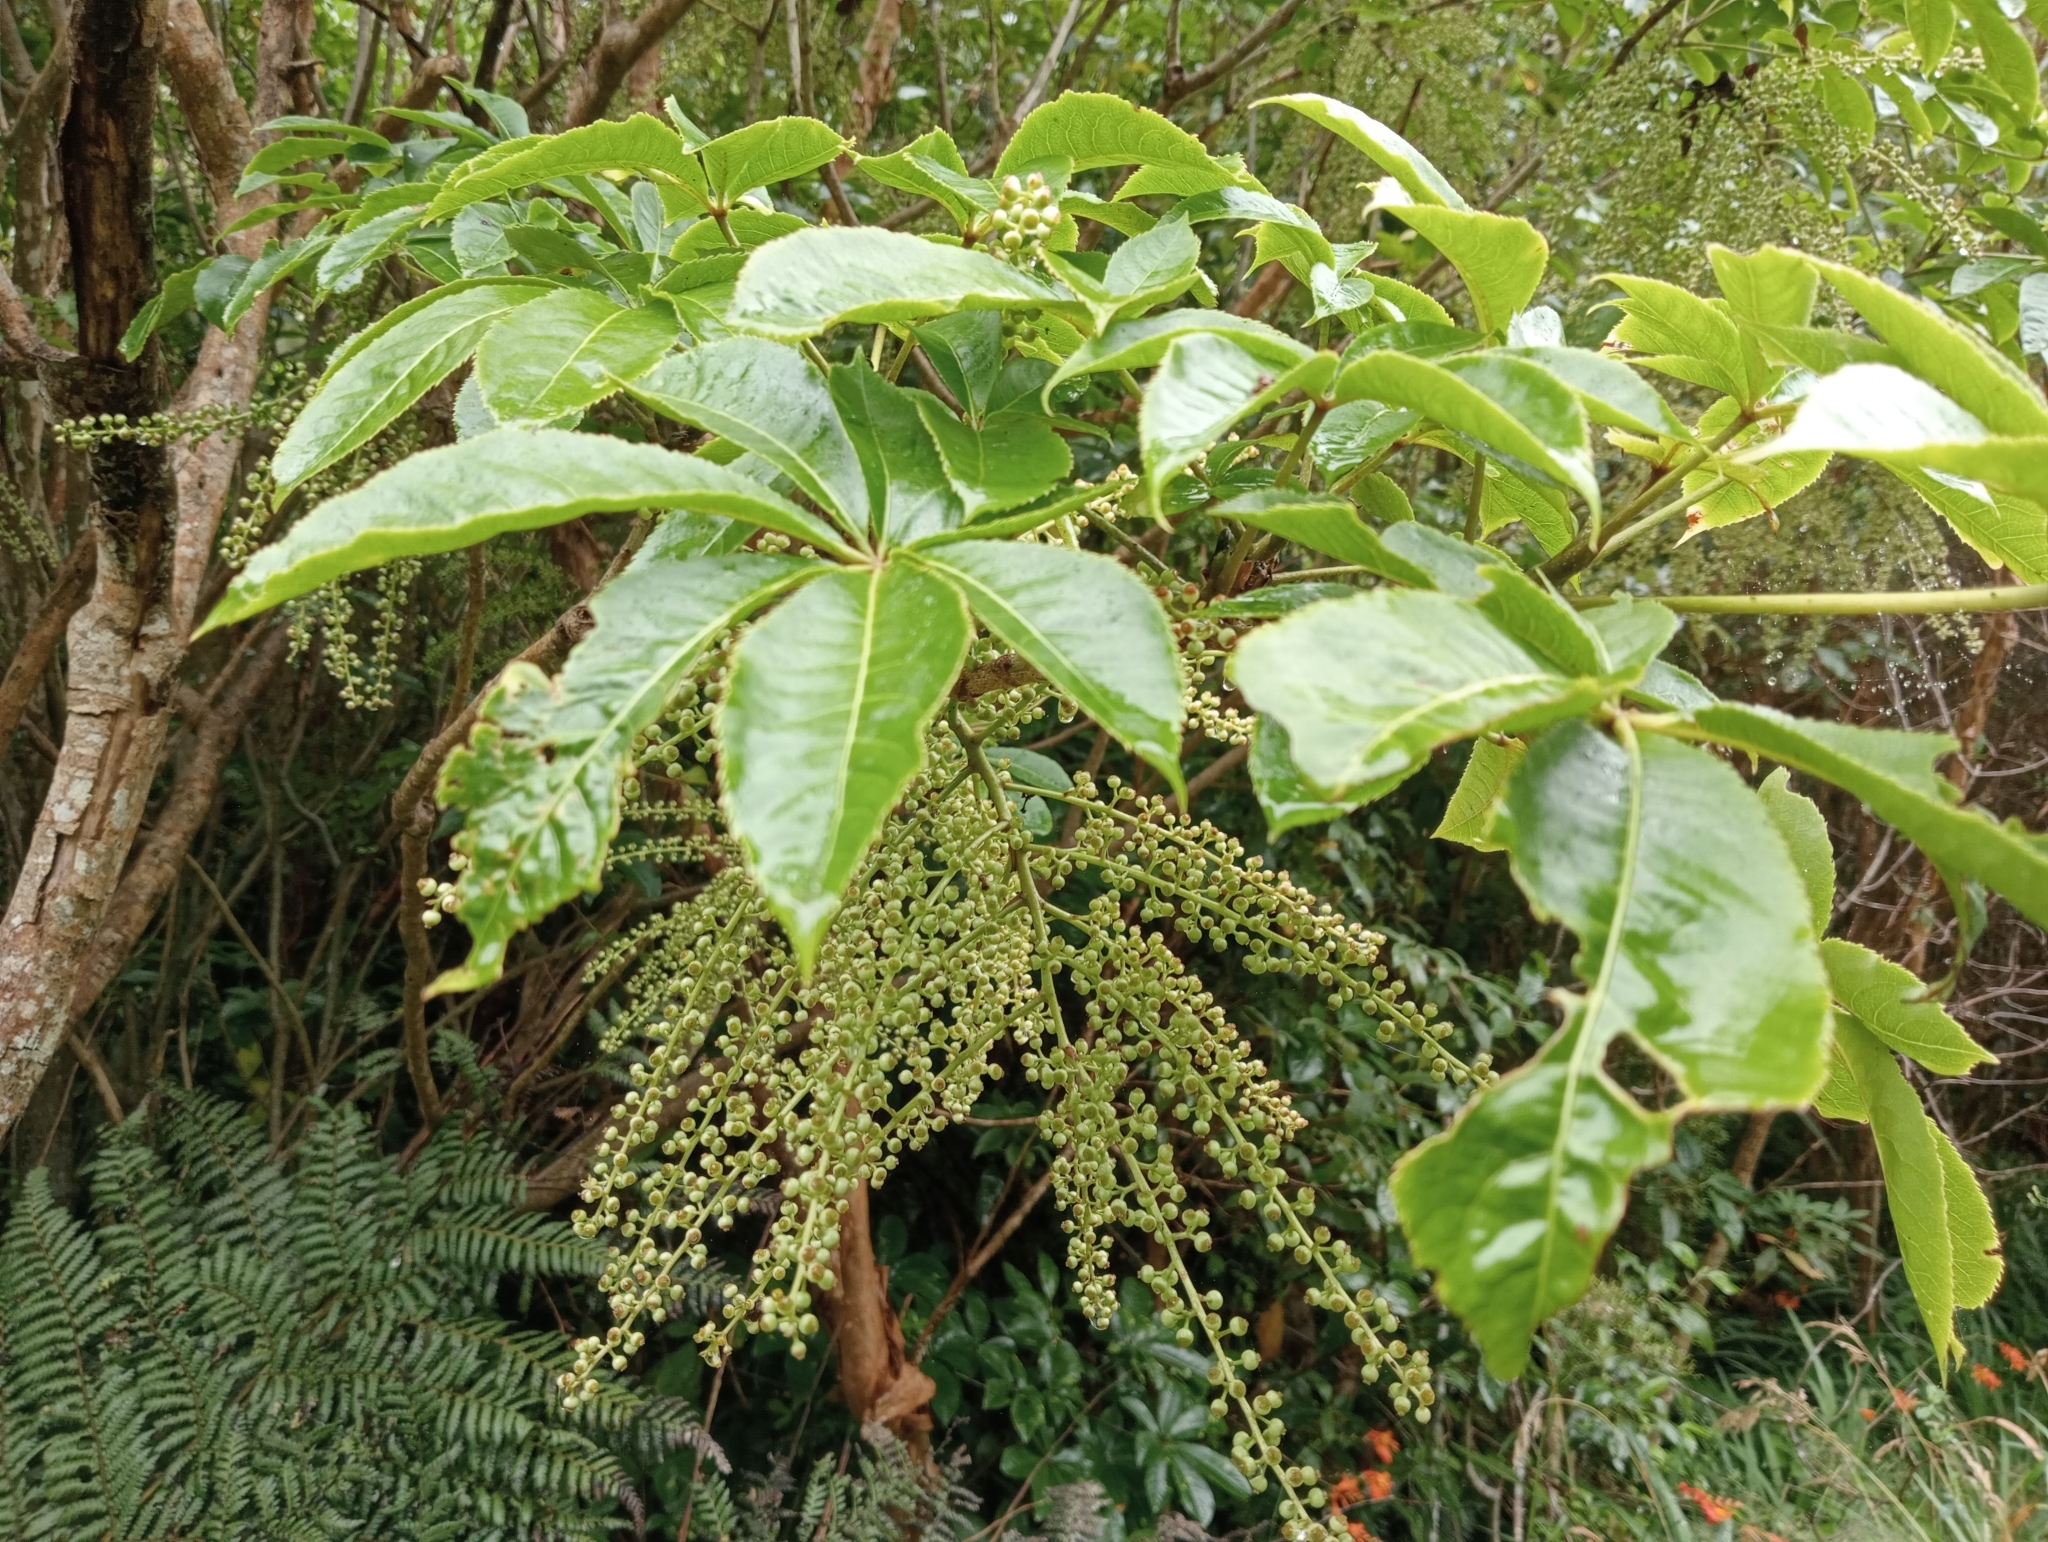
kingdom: Plantae
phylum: Tracheophyta
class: Magnoliopsida
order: Apiales
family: Araliaceae
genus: Schefflera
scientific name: Schefflera digitata
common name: Pate
